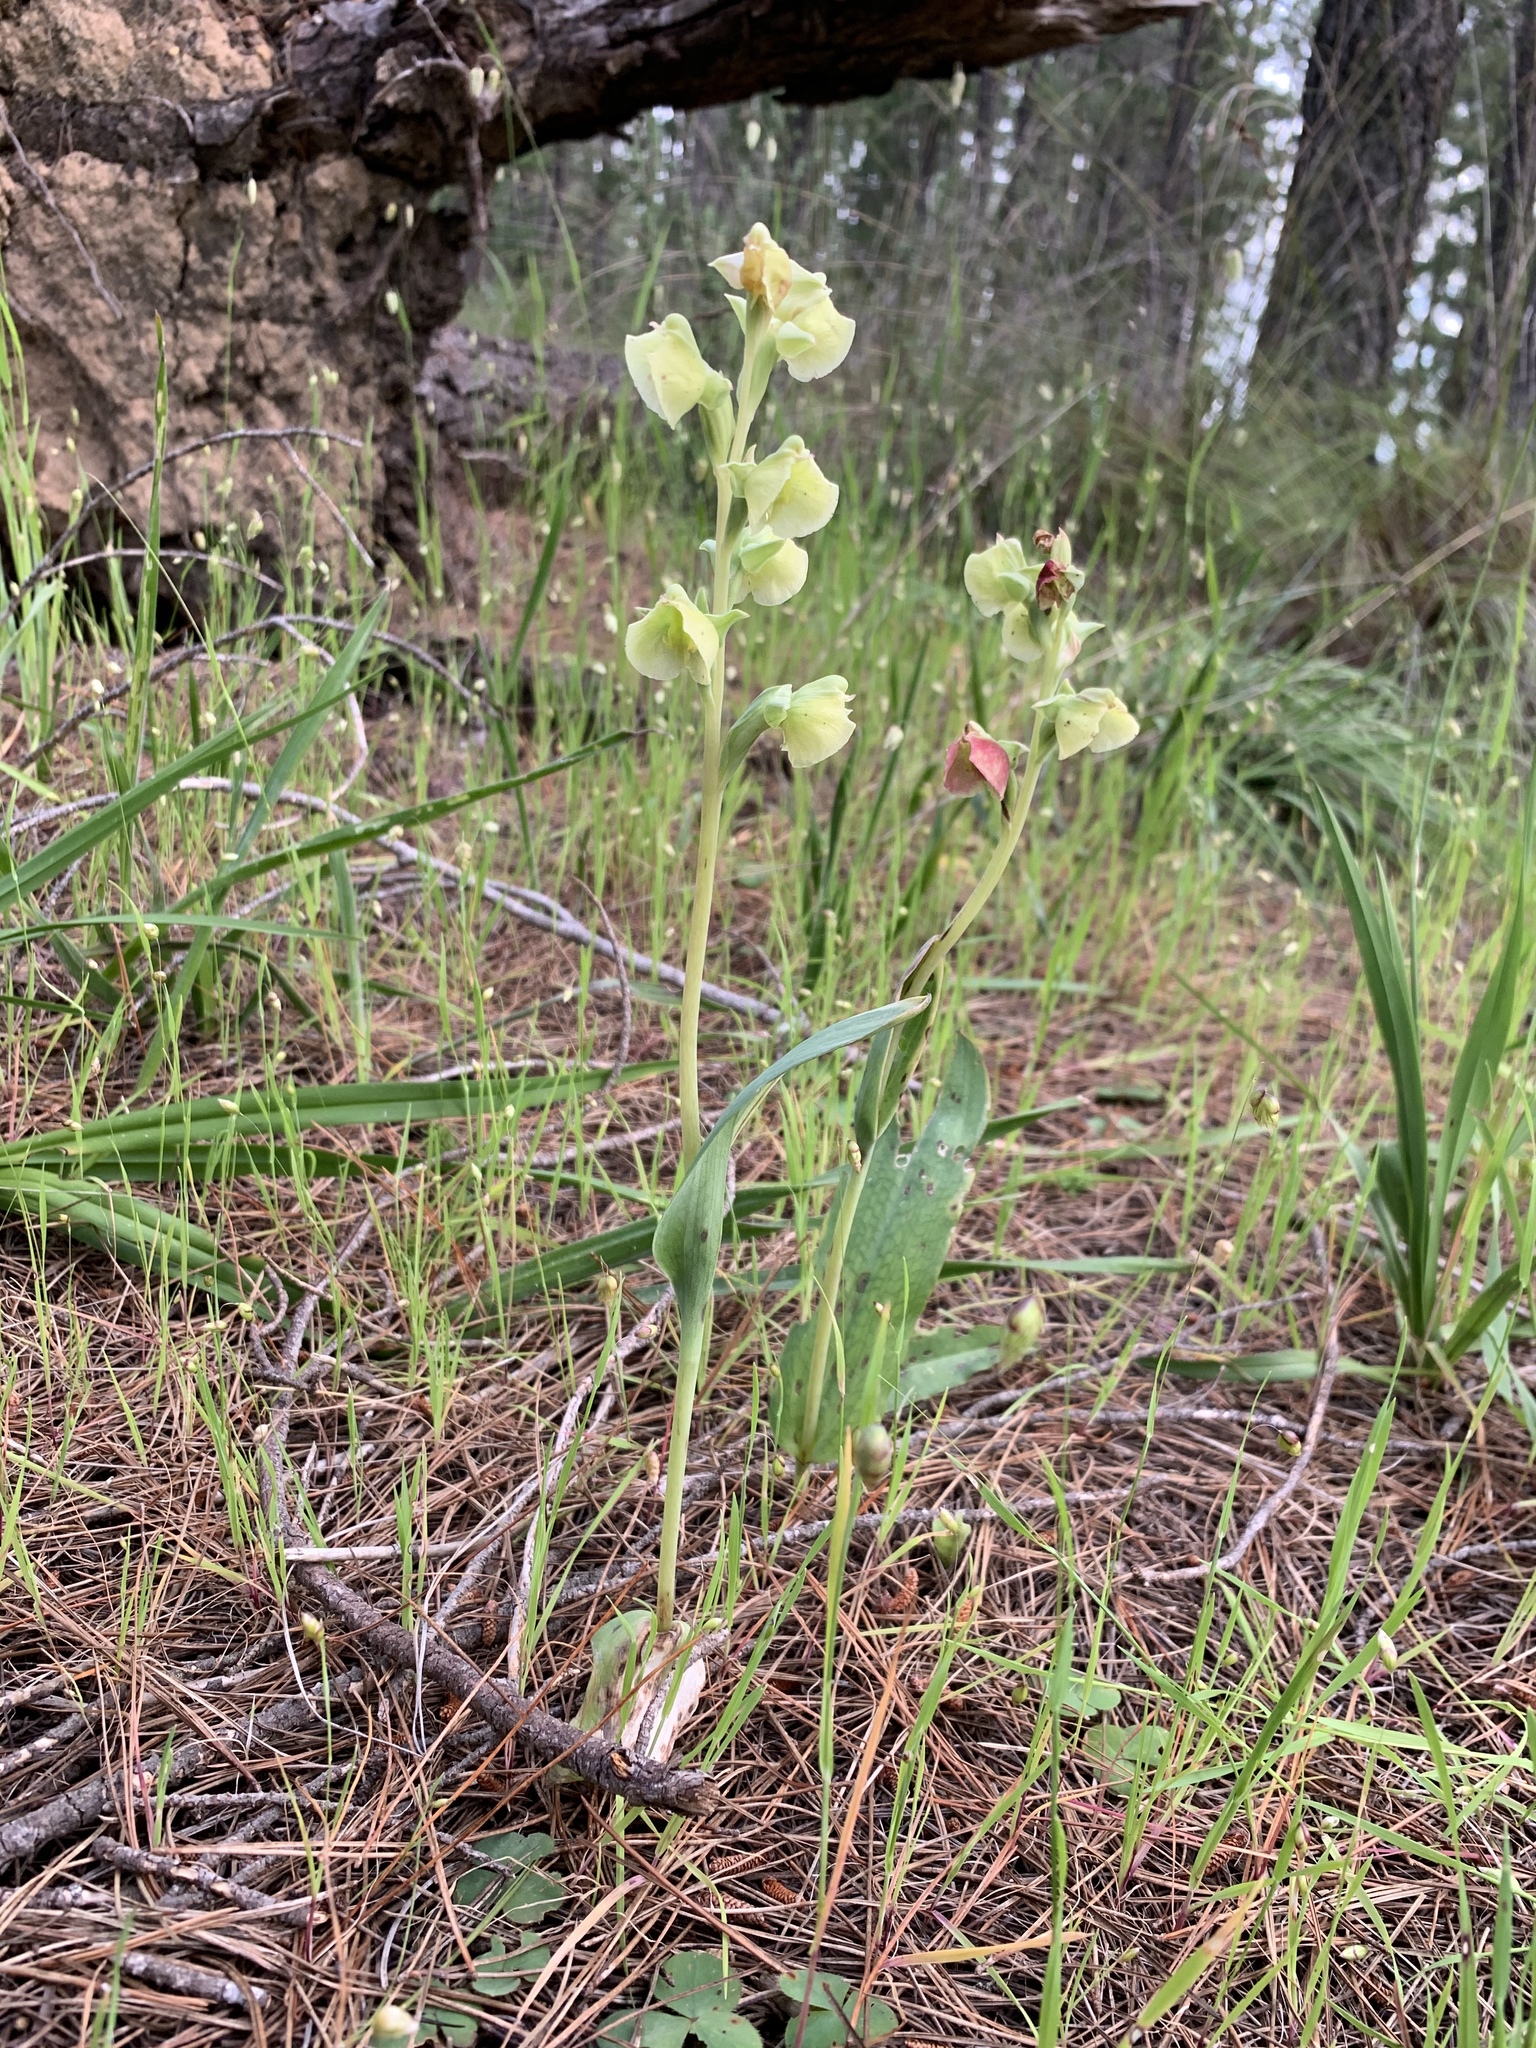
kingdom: Plantae
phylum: Tracheophyta
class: Liliopsida
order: Asparagales
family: Orchidaceae
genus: Pterygodium
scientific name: Pterygodium catholicum
